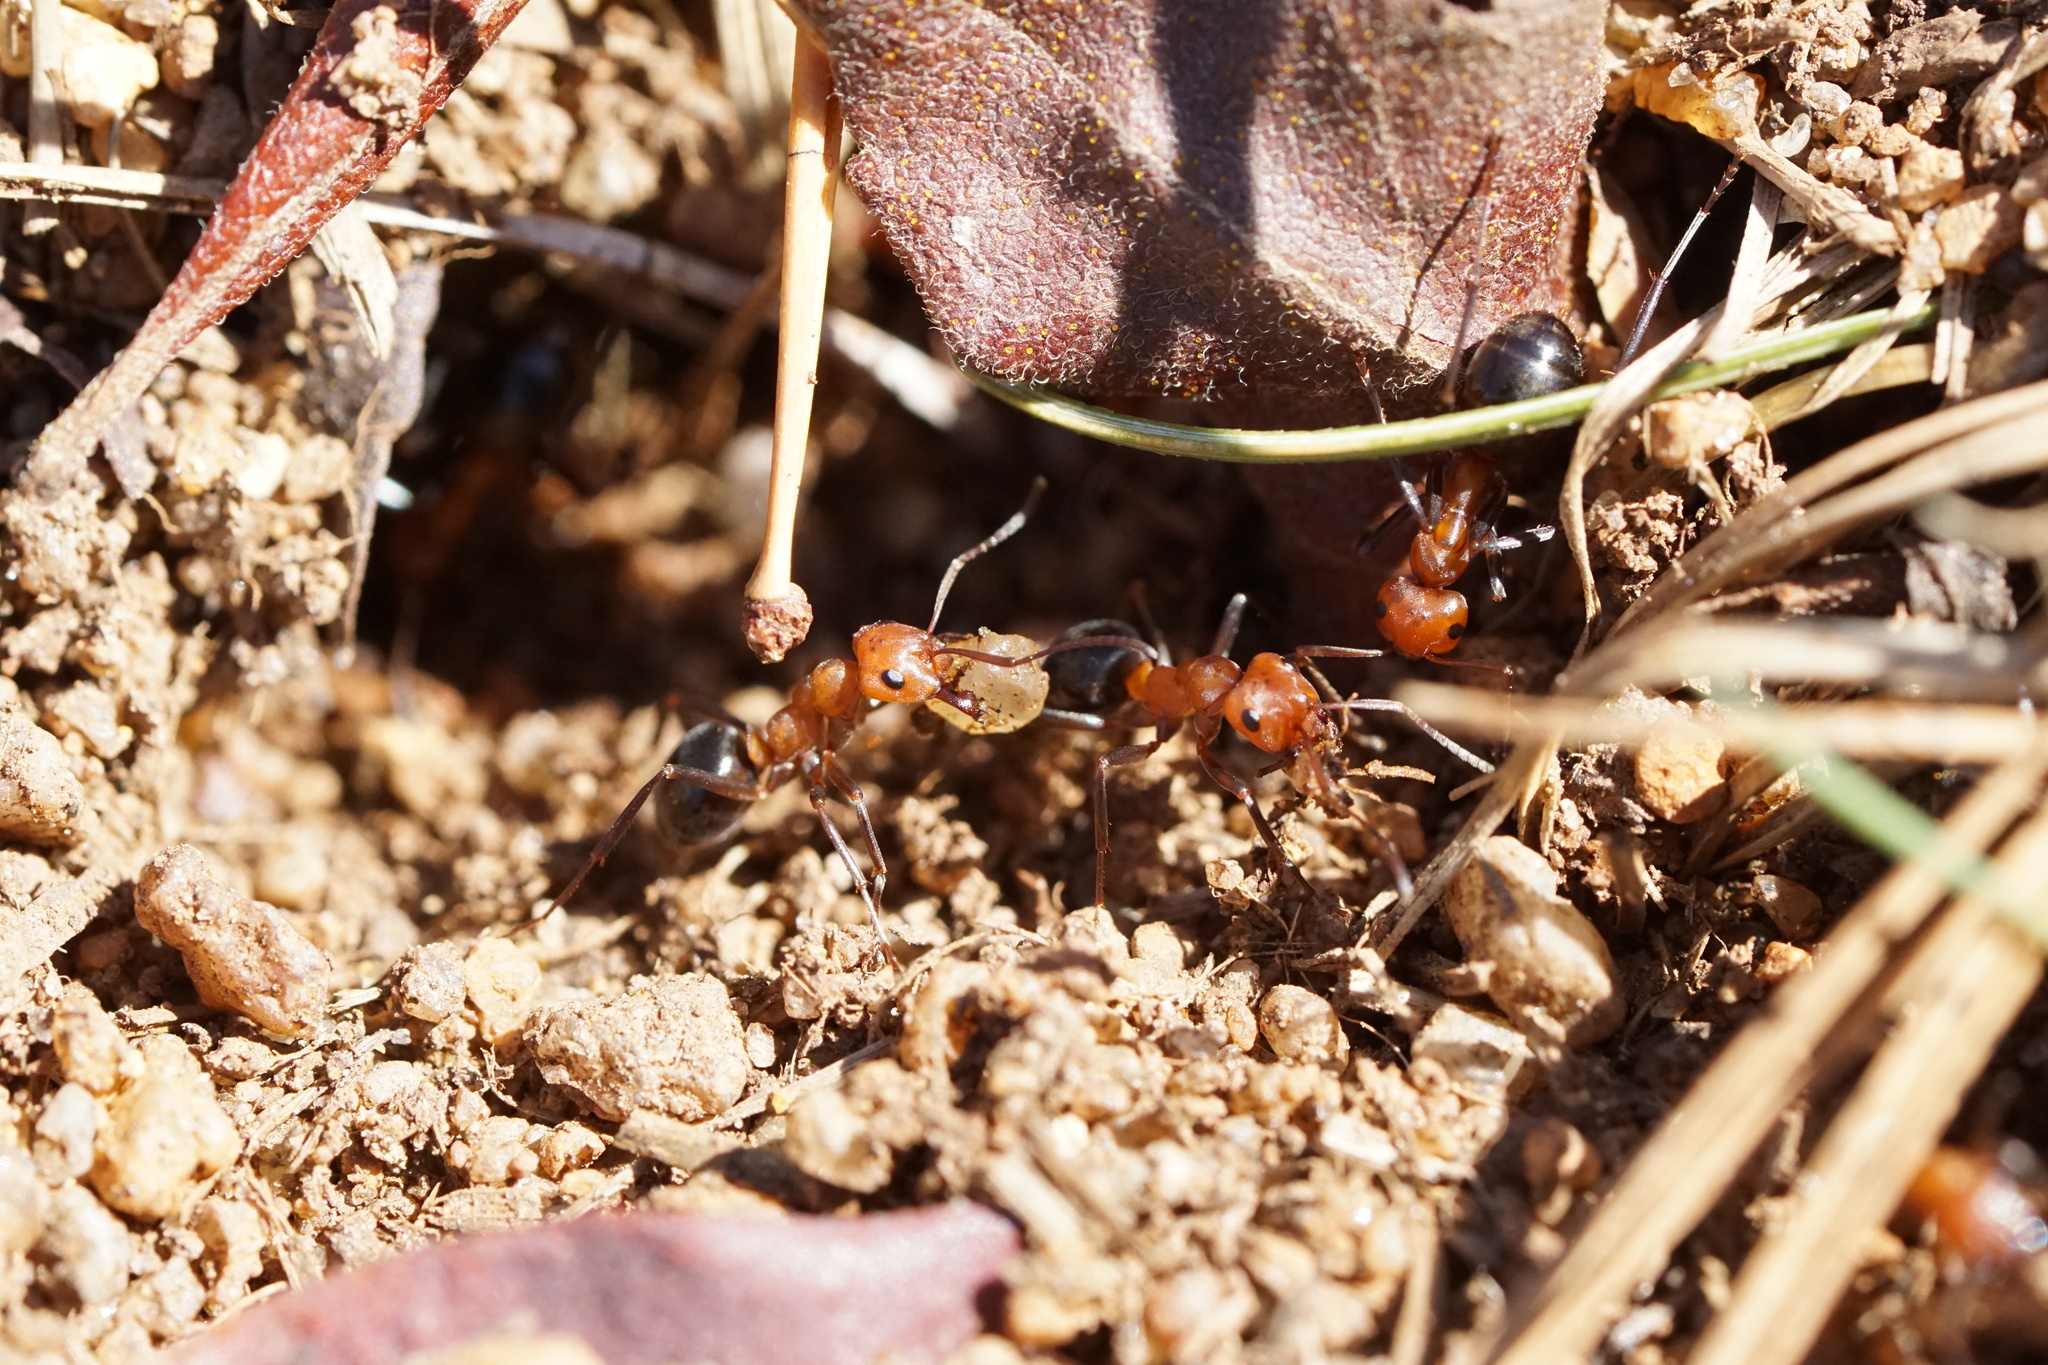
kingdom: Animalia
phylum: Arthropoda
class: Insecta
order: Hymenoptera
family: Formicidae
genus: Formica
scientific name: Formica exsectoides
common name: Allegheny mound ant
